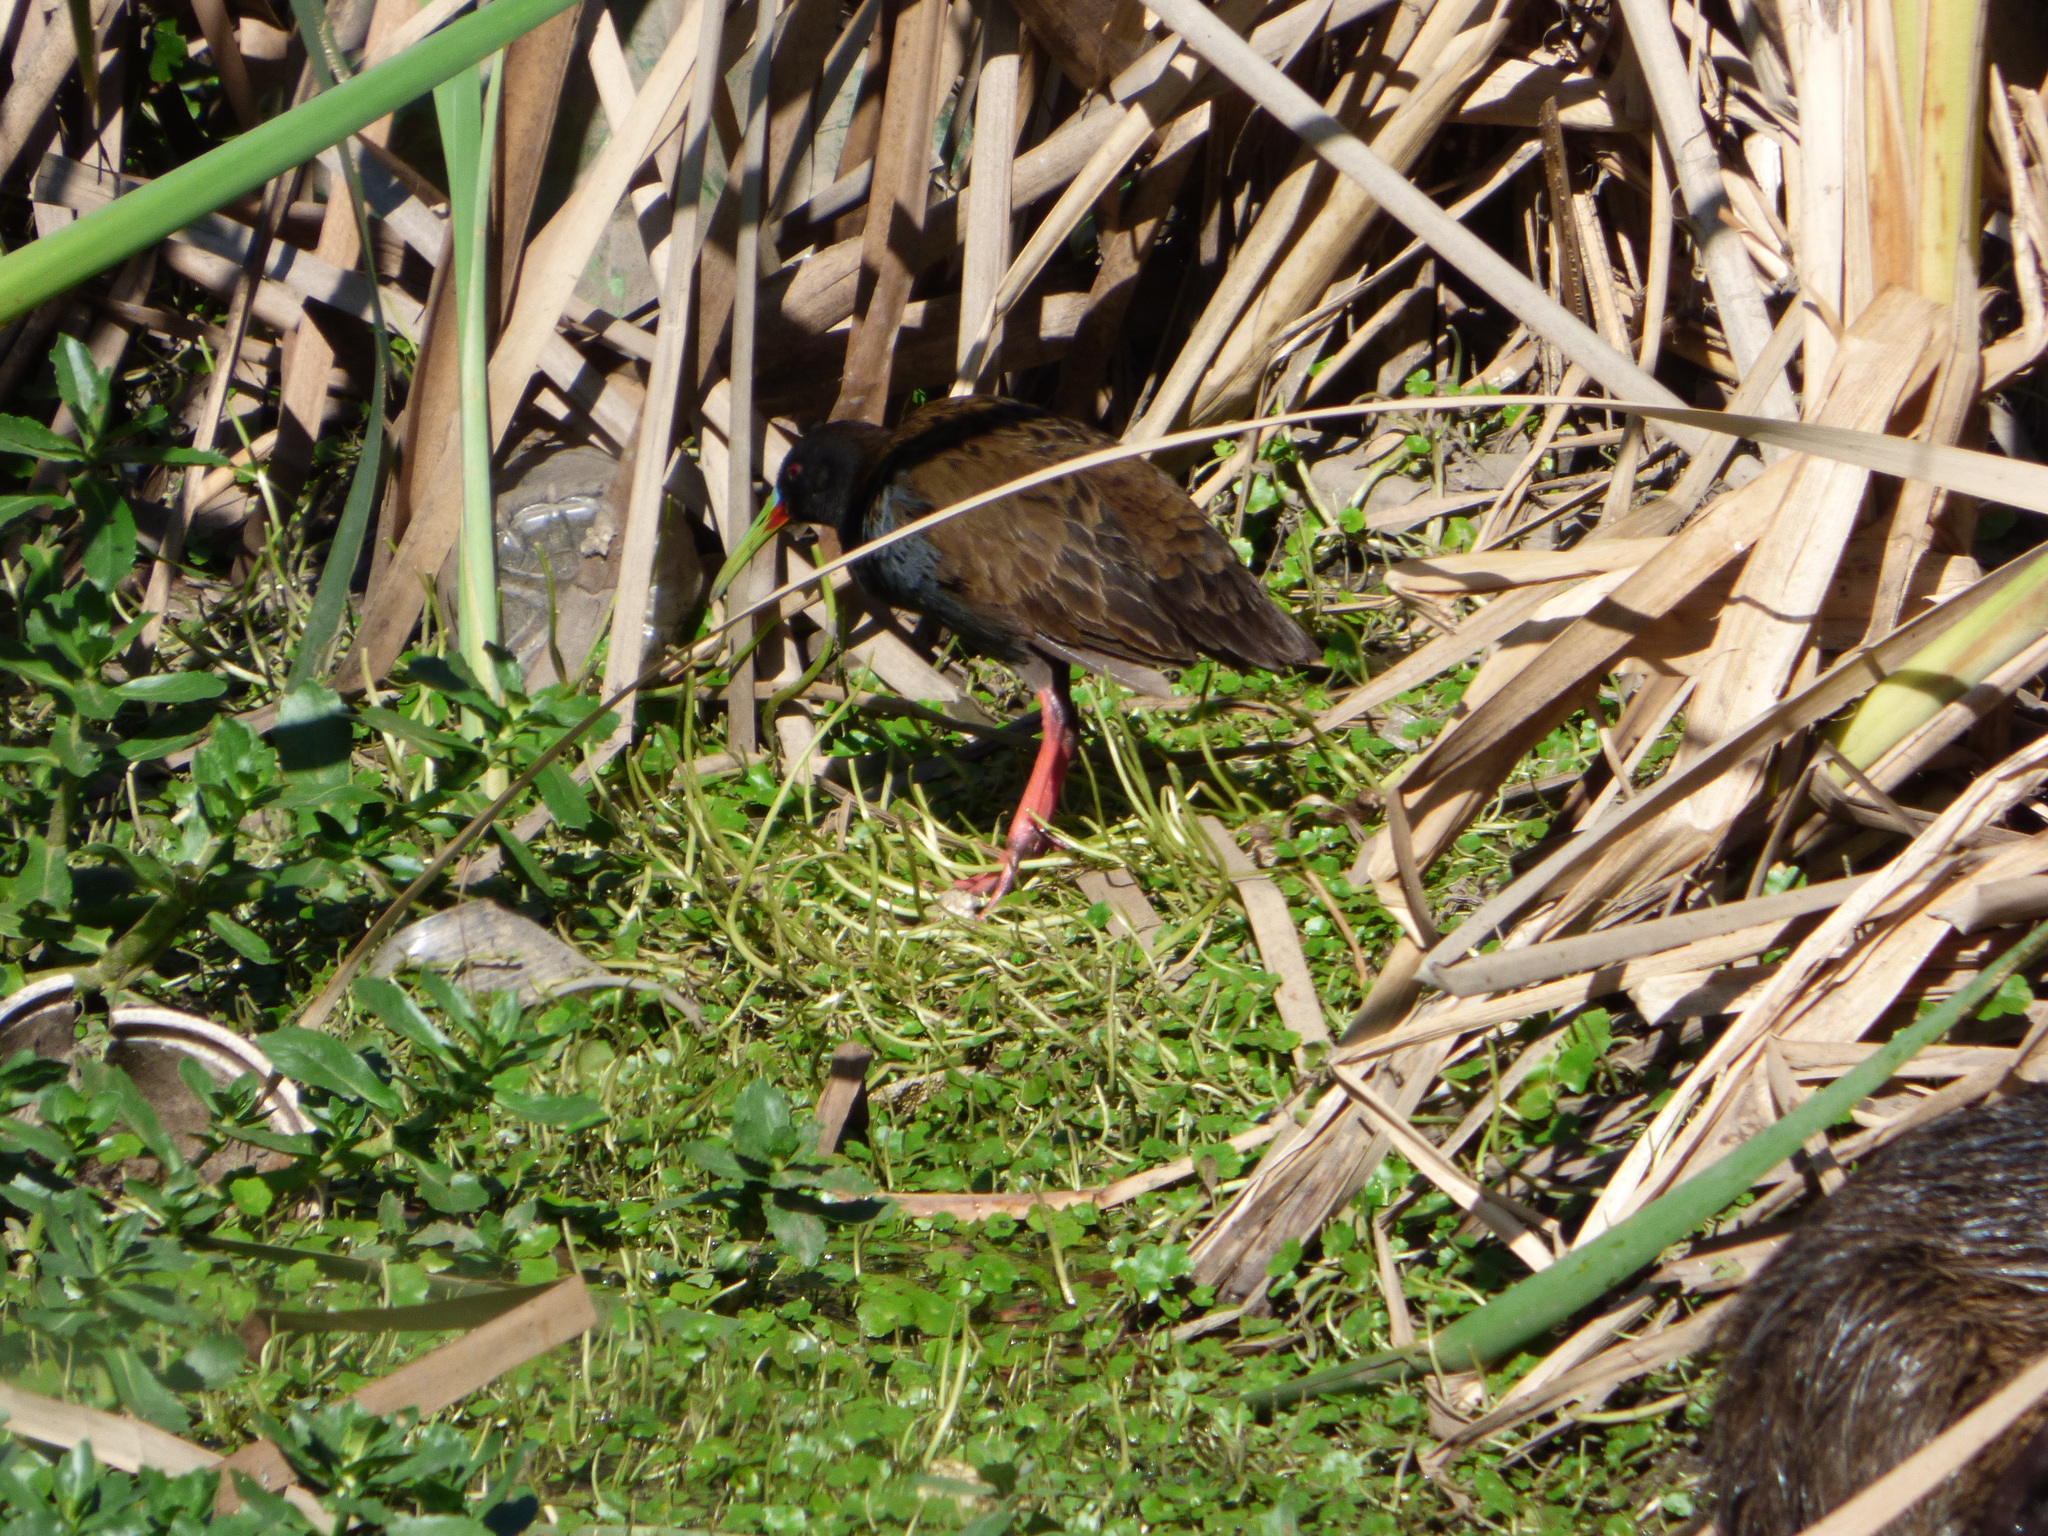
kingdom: Animalia
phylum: Chordata
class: Aves
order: Gruiformes
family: Rallidae
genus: Pardirallus
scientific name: Pardirallus sanguinolentus
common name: Plumbeous rail
